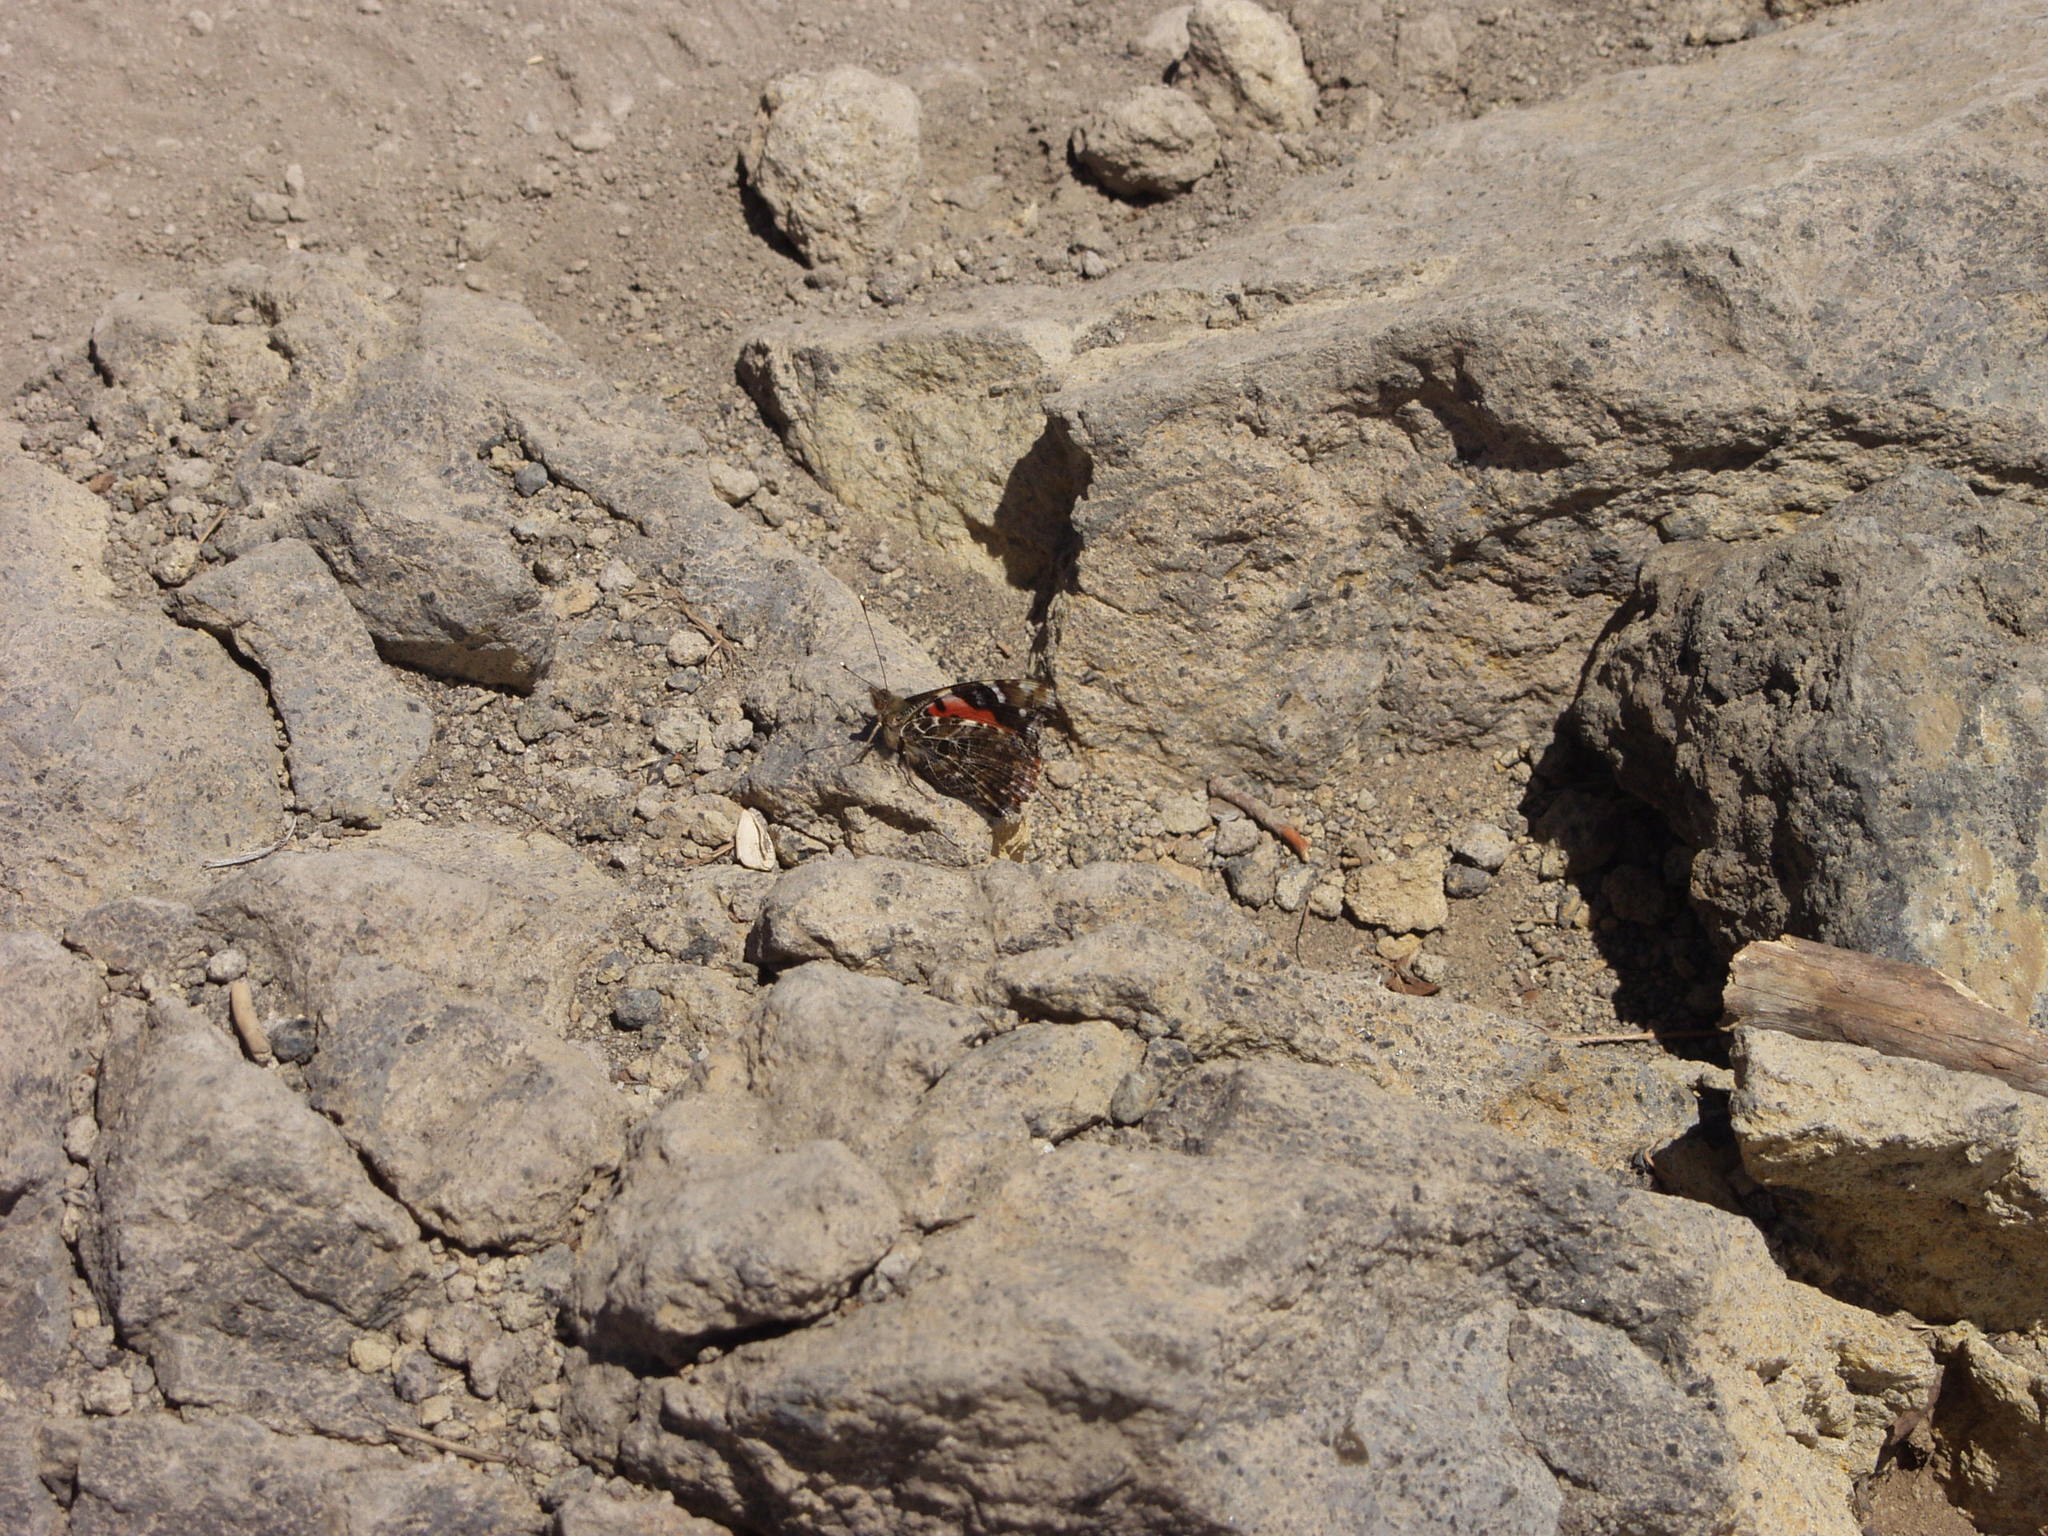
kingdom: Animalia
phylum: Arthropoda
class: Insecta
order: Lepidoptera
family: Nymphalidae
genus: Vanessa
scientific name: Vanessa vulcania
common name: Canary red admiral
